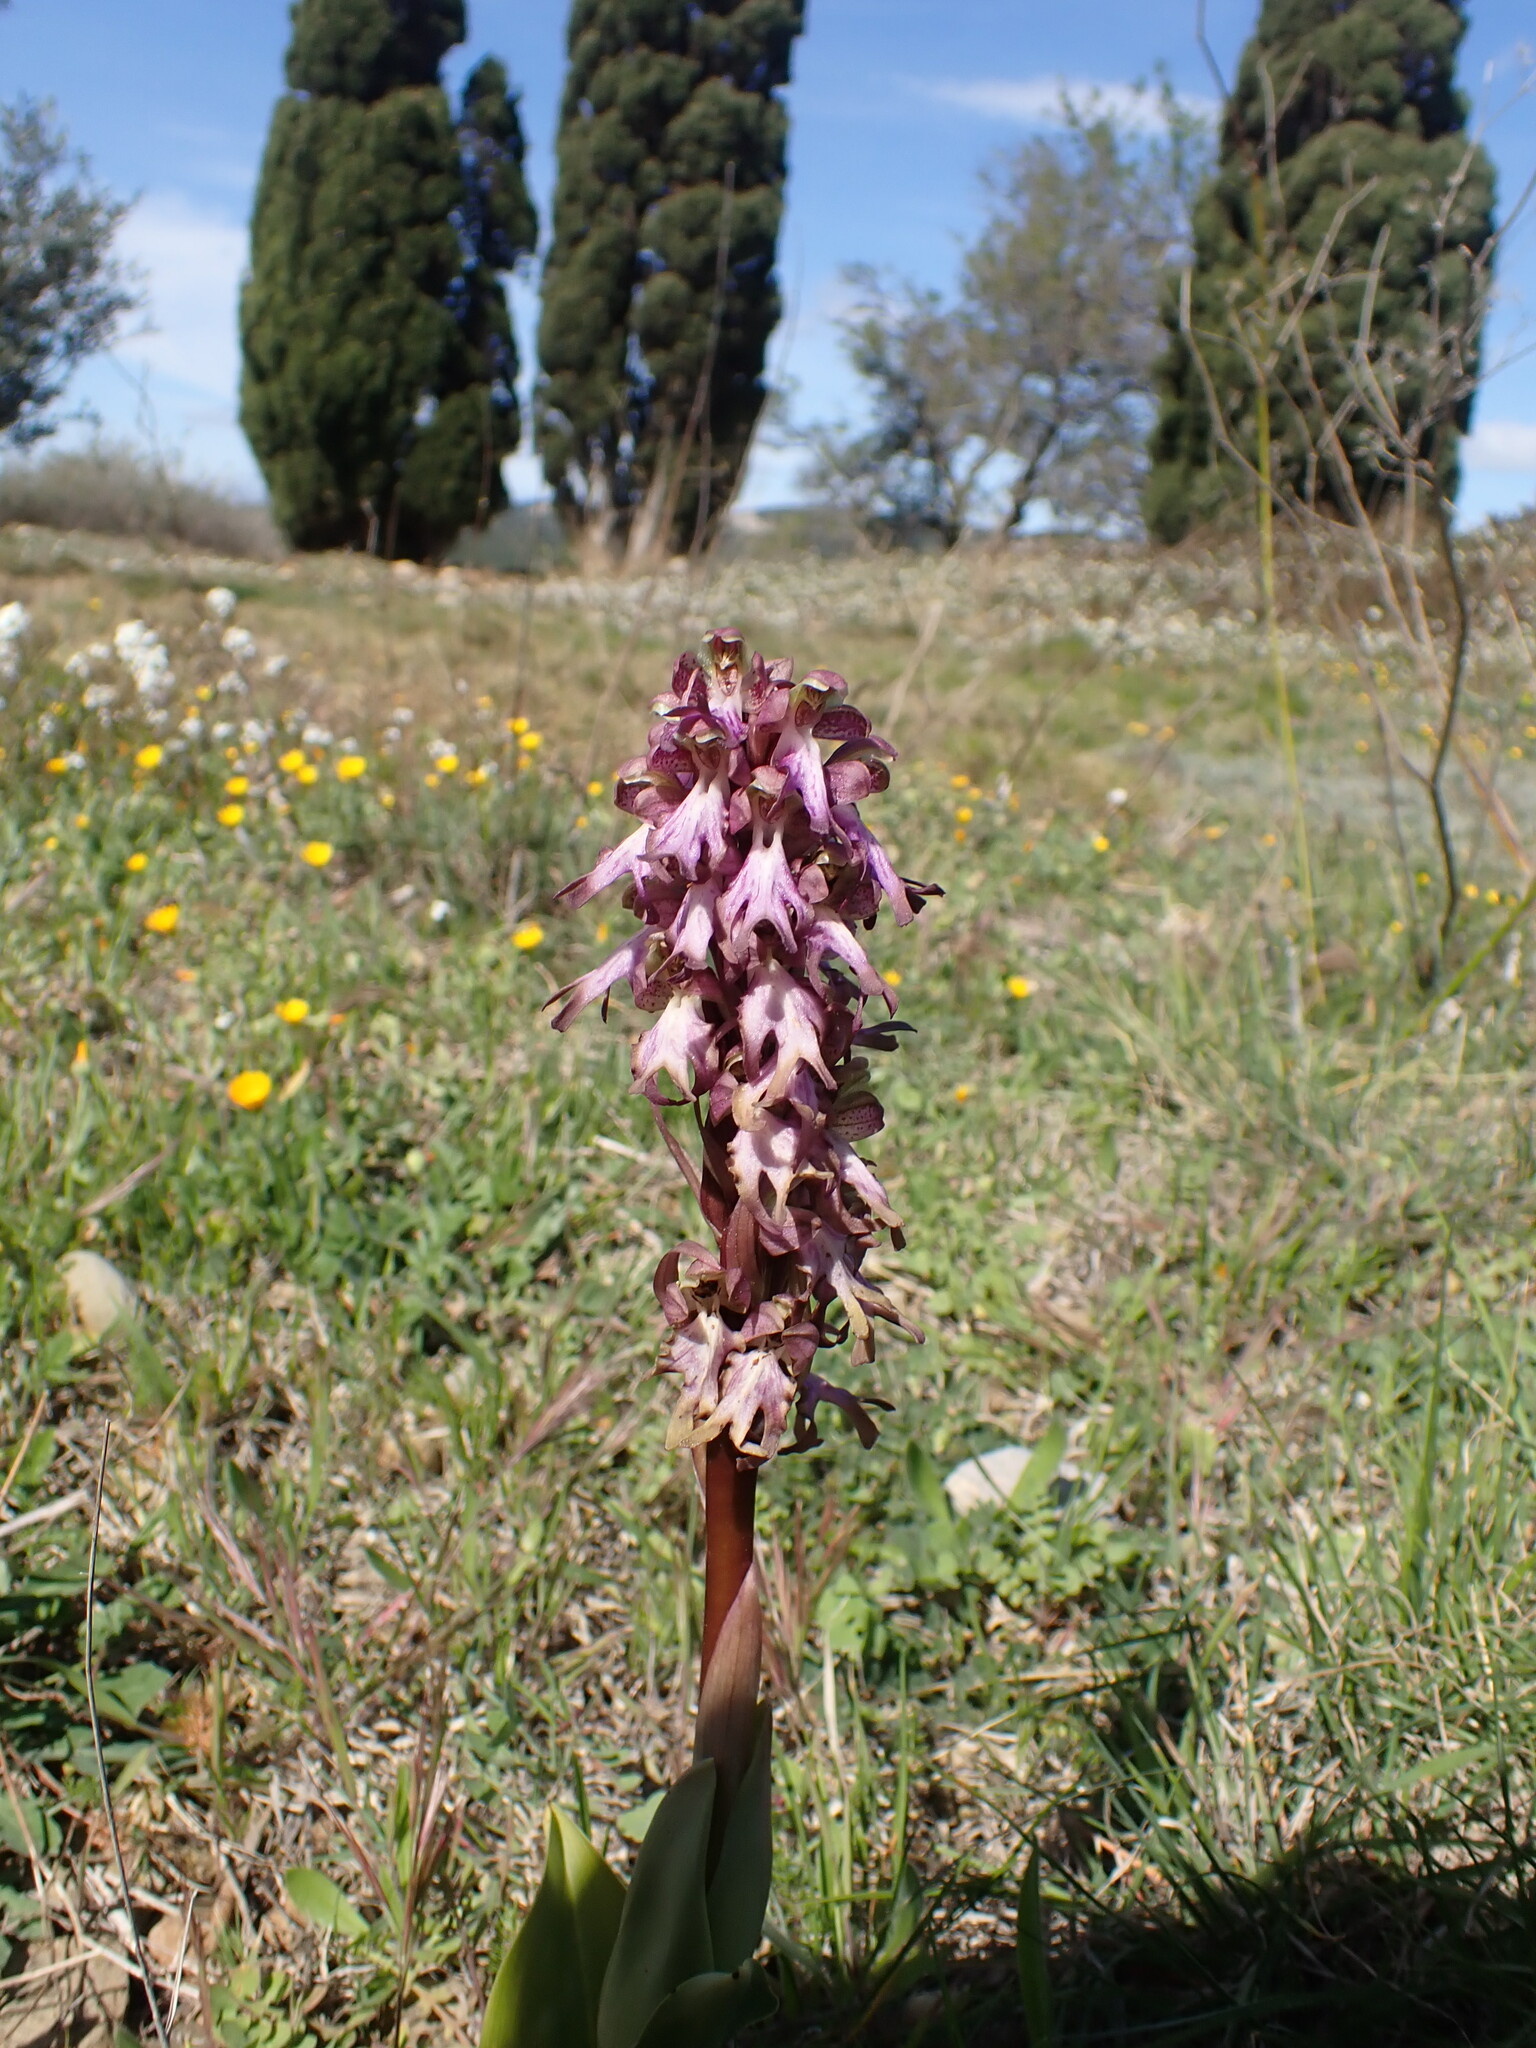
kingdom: Plantae
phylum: Tracheophyta
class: Liliopsida
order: Asparagales
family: Orchidaceae
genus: Himantoglossum
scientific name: Himantoglossum robertianum
